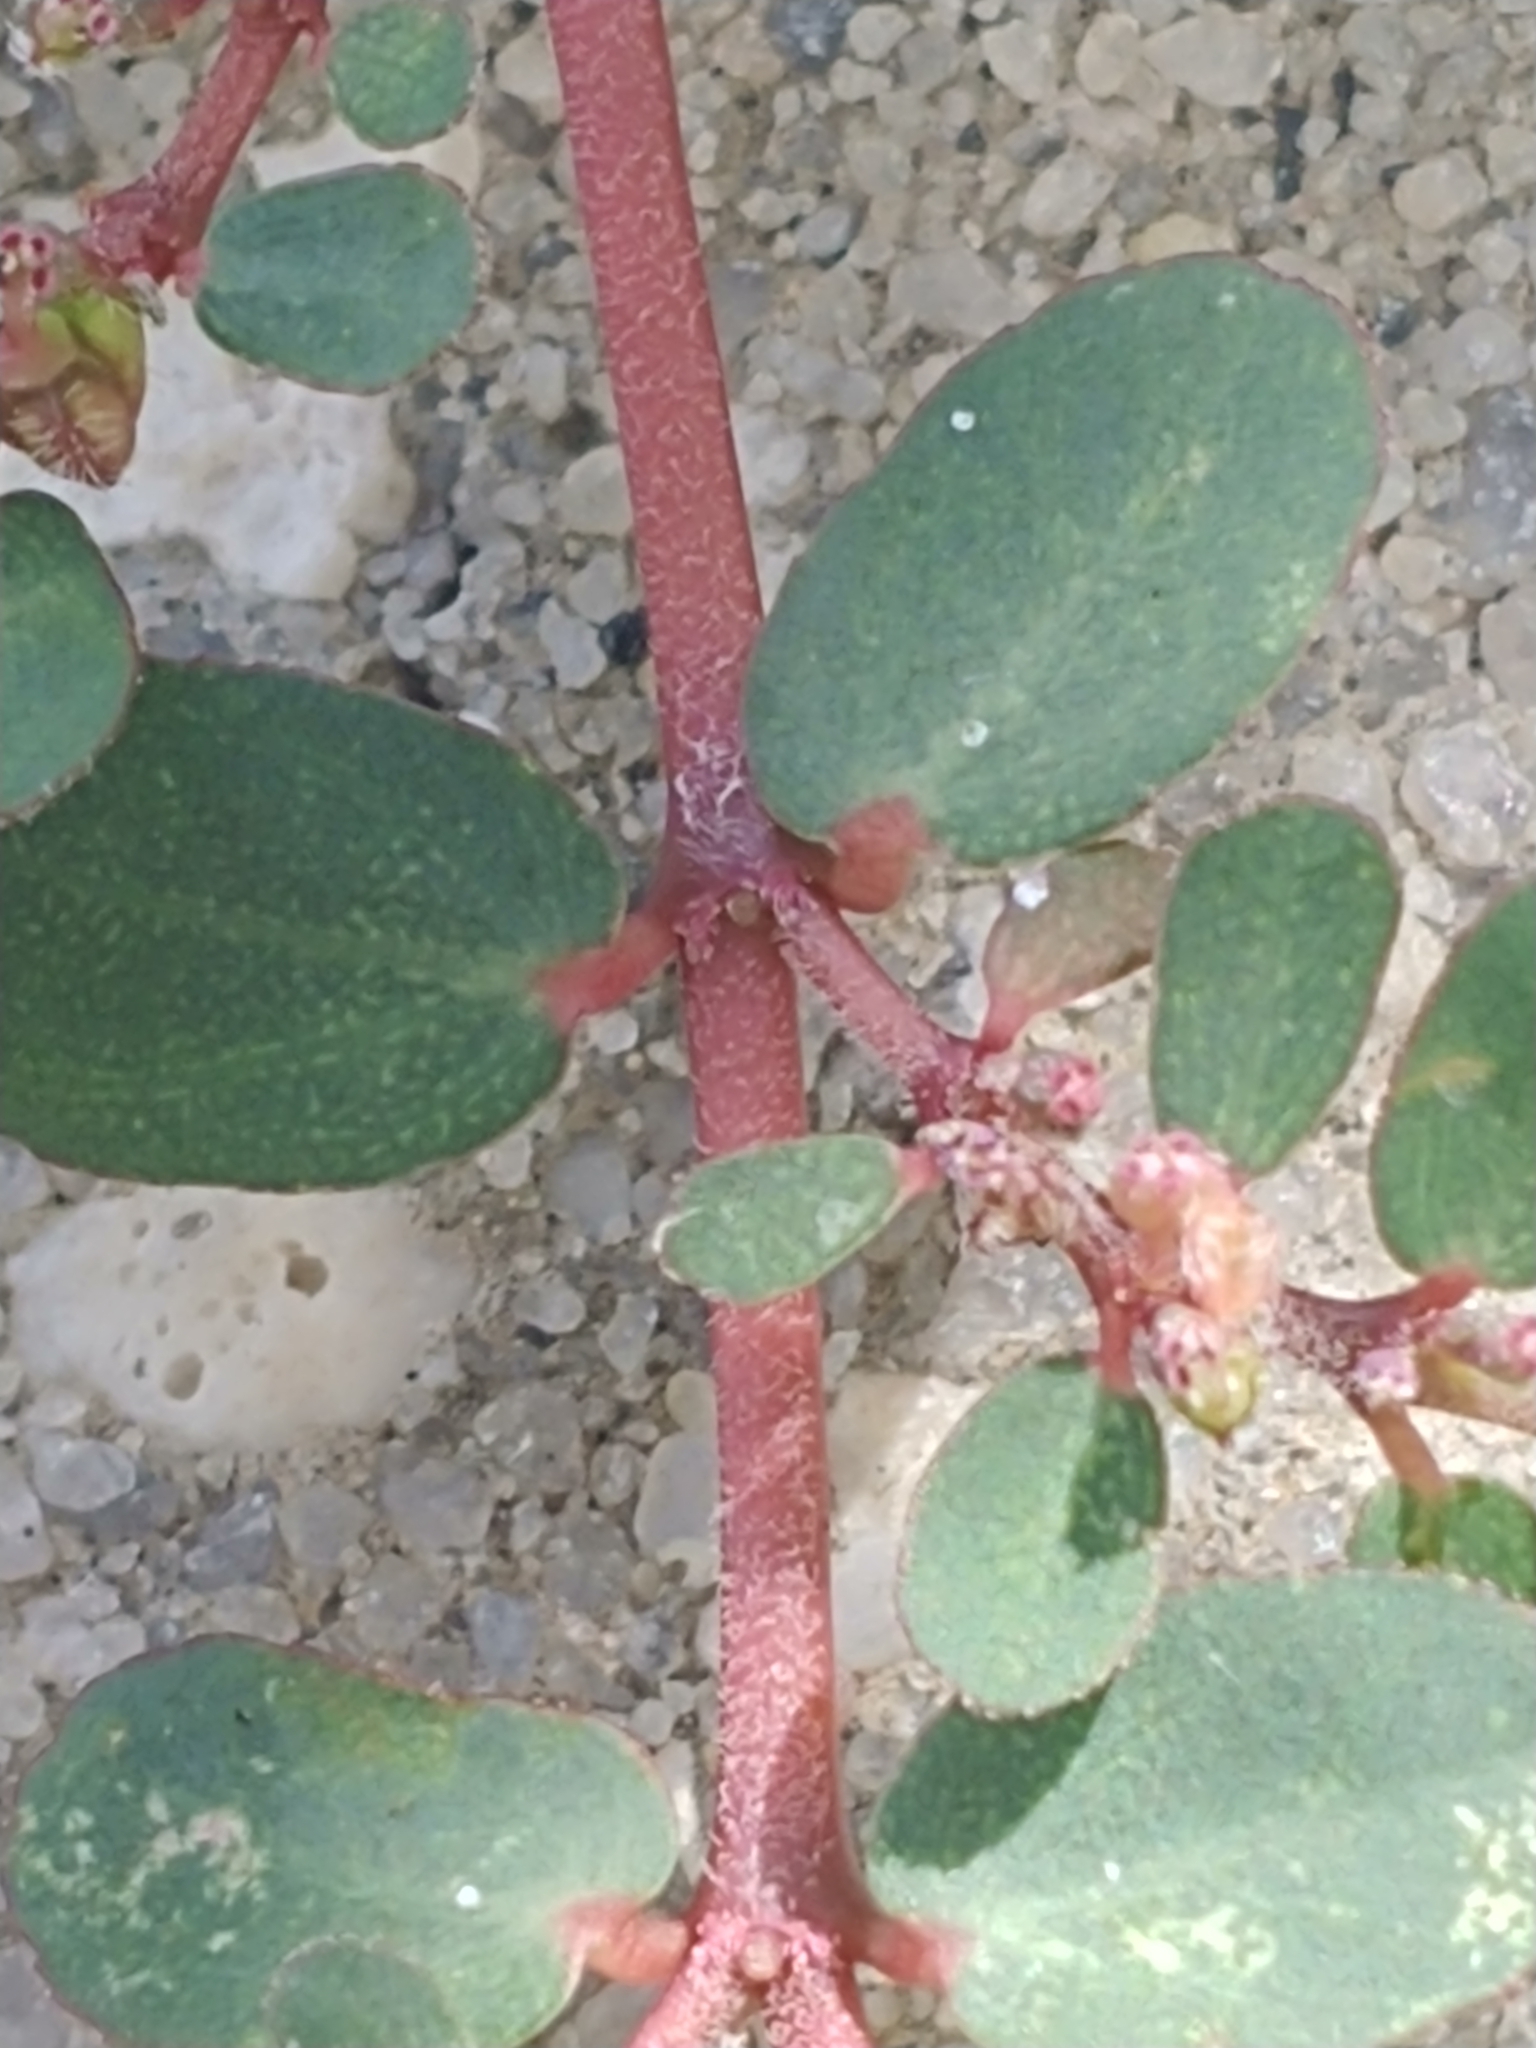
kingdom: Plantae
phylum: Tracheophyta
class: Magnoliopsida
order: Malpighiales
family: Euphorbiaceae
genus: Euphorbia
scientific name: Euphorbia prostrata
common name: Prostrate sandmat
